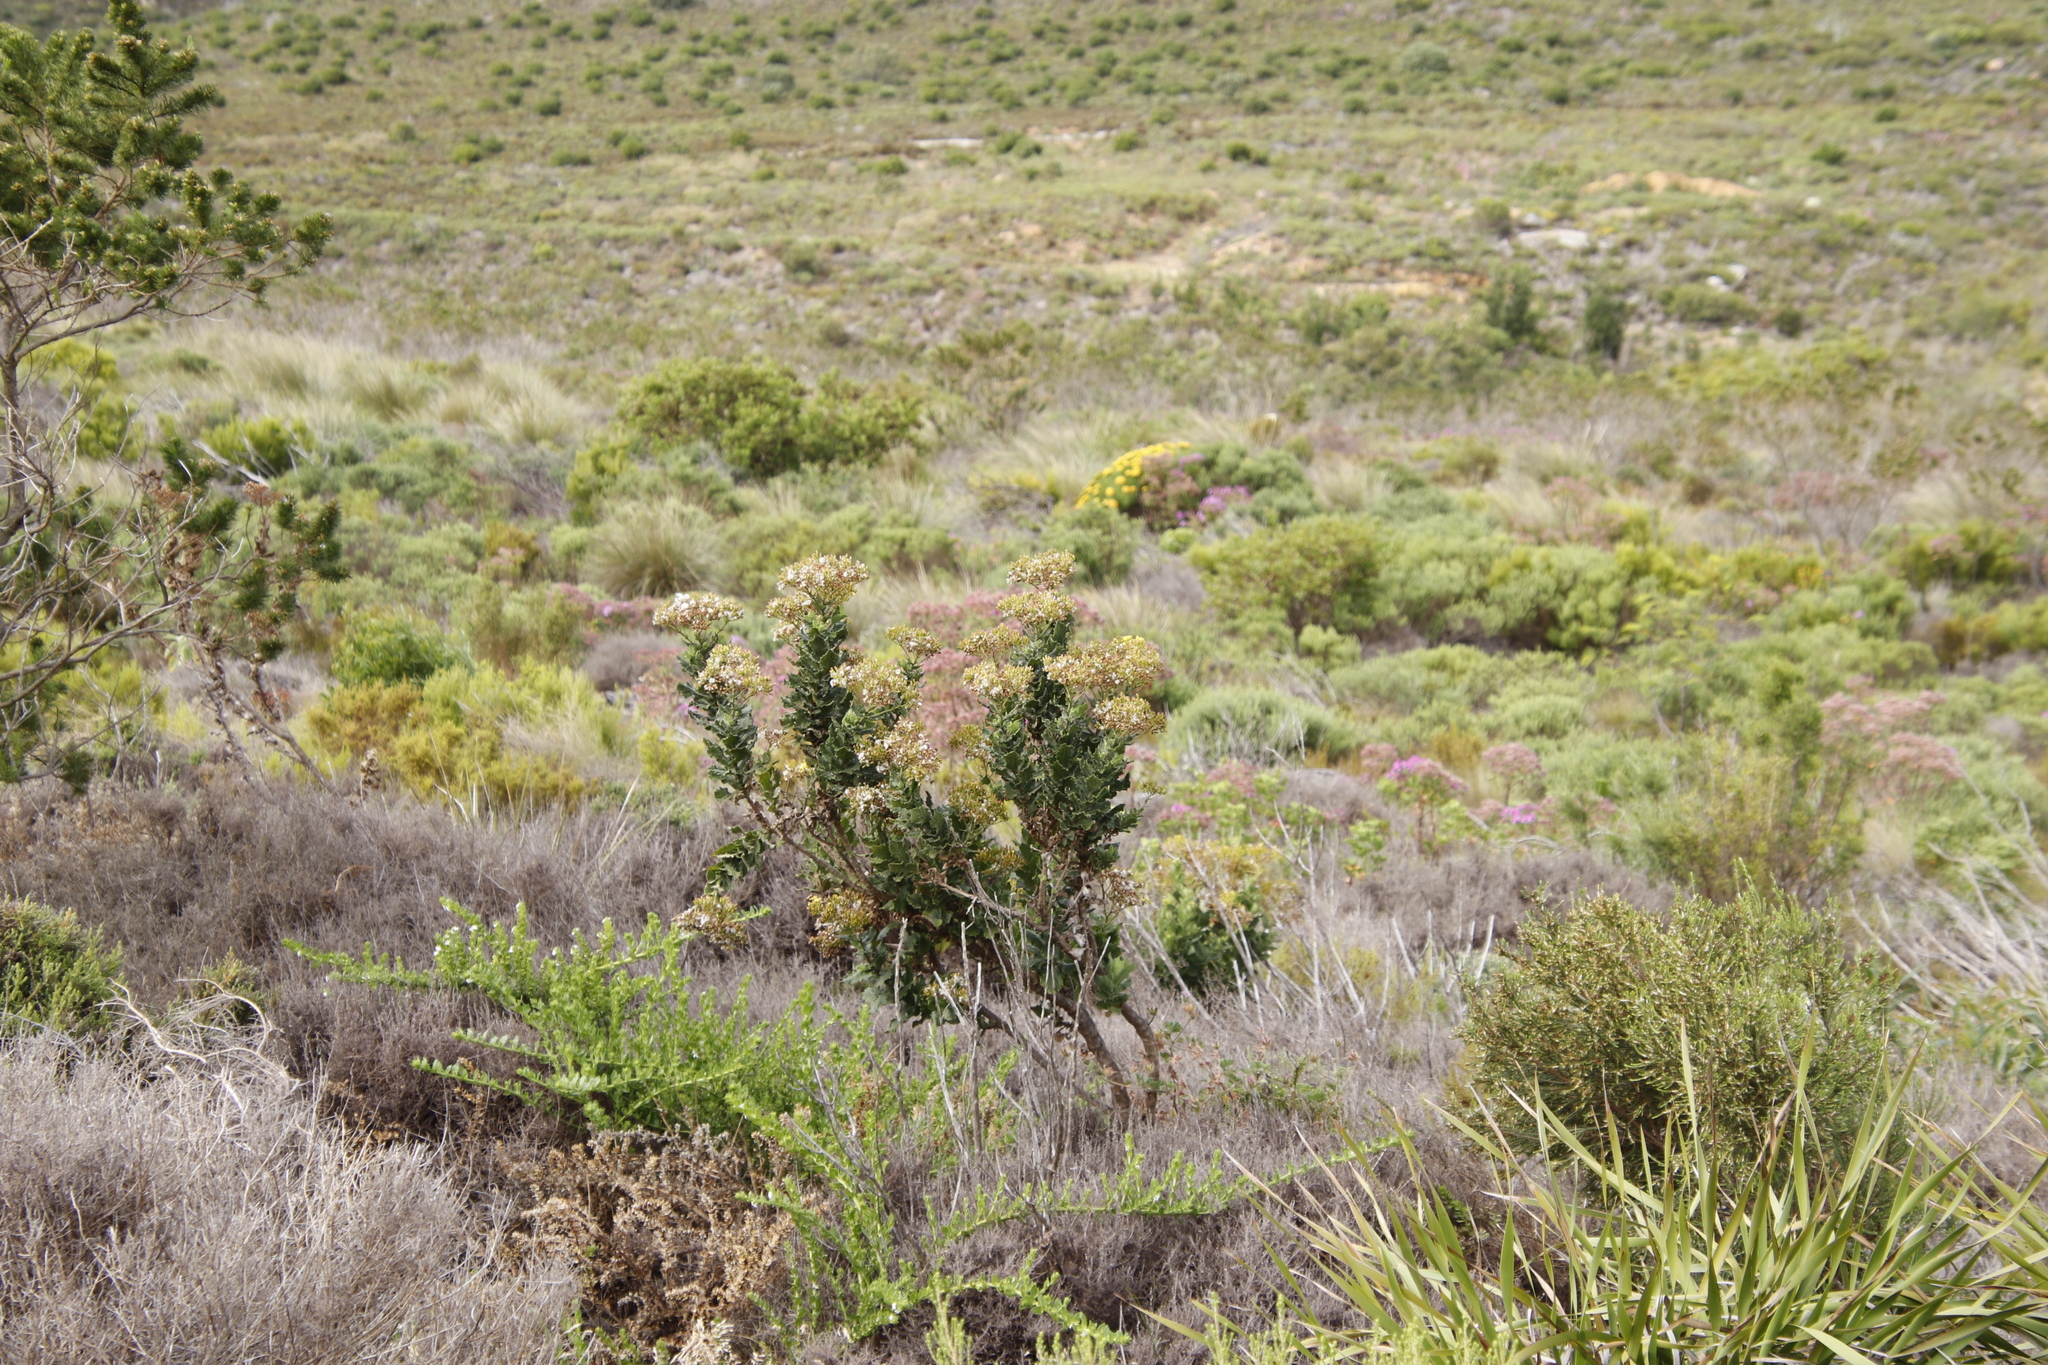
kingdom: Plantae
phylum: Tracheophyta
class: Magnoliopsida
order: Asterales
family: Asteraceae
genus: Senecio
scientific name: Senecio rigidus
